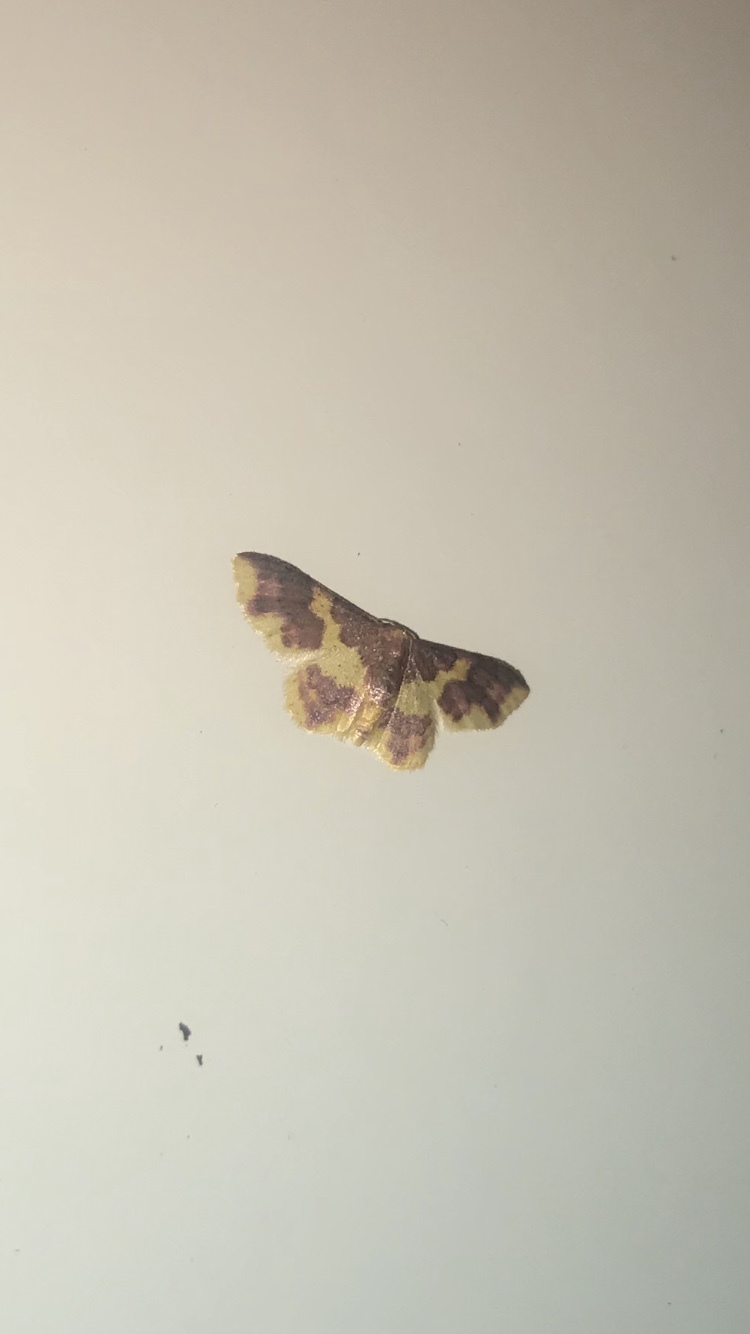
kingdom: Animalia
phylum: Arthropoda
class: Insecta
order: Lepidoptera
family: Geometridae
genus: Lophosis
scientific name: Lophosis labeculata
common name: Stained lophosis moth
